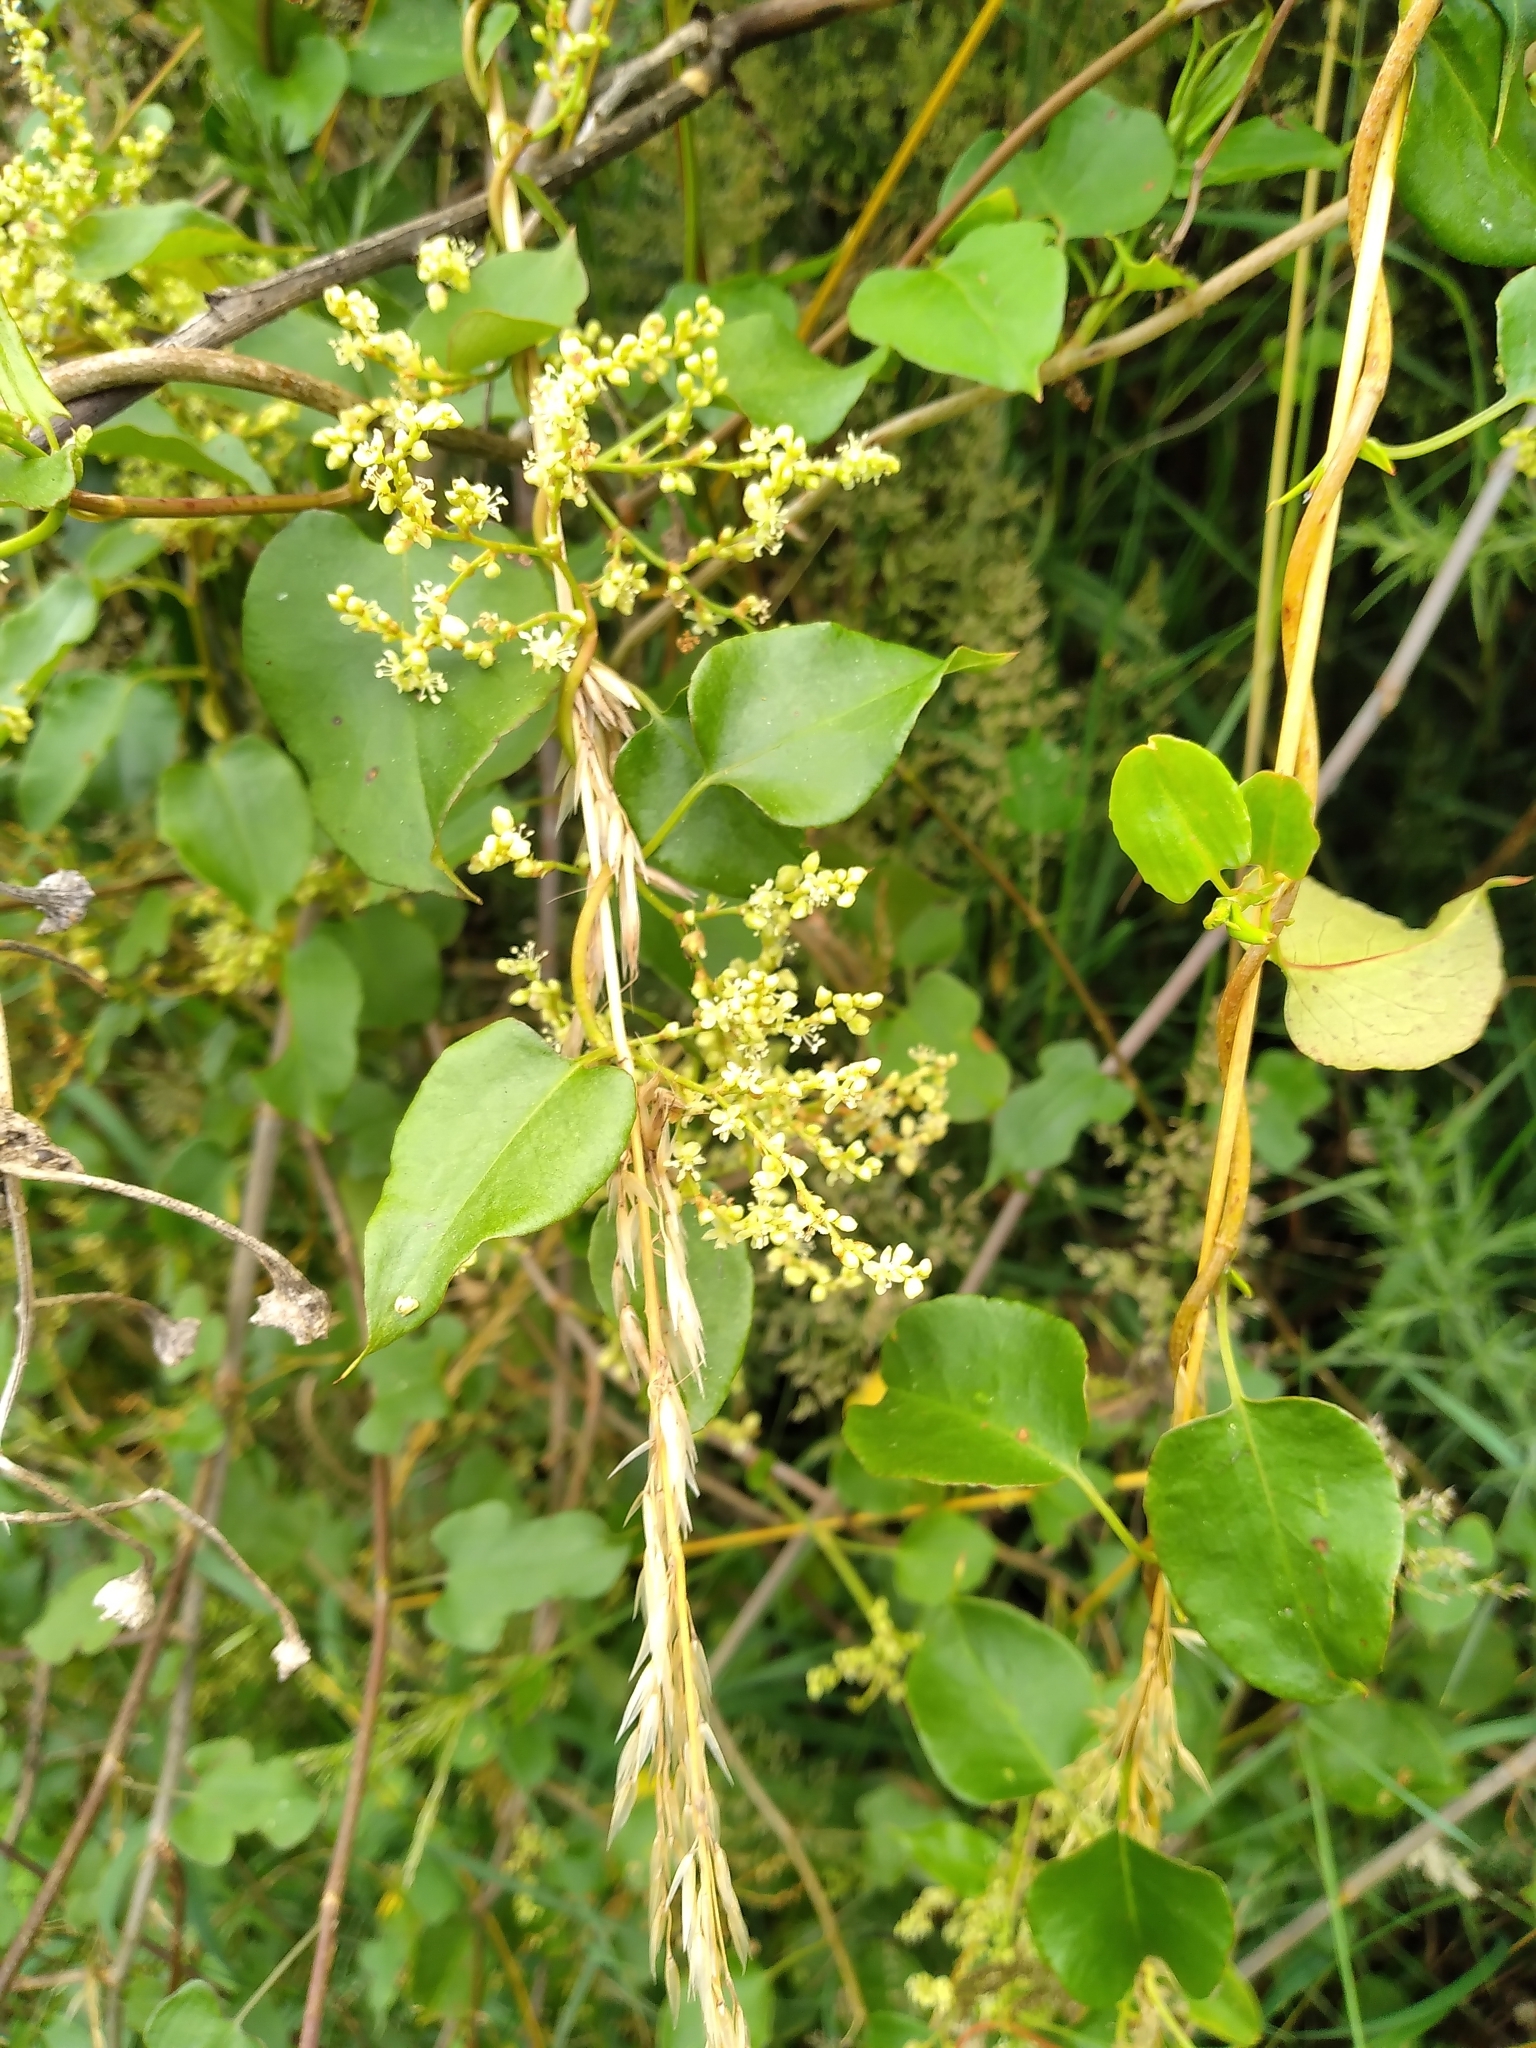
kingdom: Plantae
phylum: Tracheophyta
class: Magnoliopsida
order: Caryophyllales
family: Polygonaceae
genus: Muehlenbeckia
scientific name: Muehlenbeckia australis
